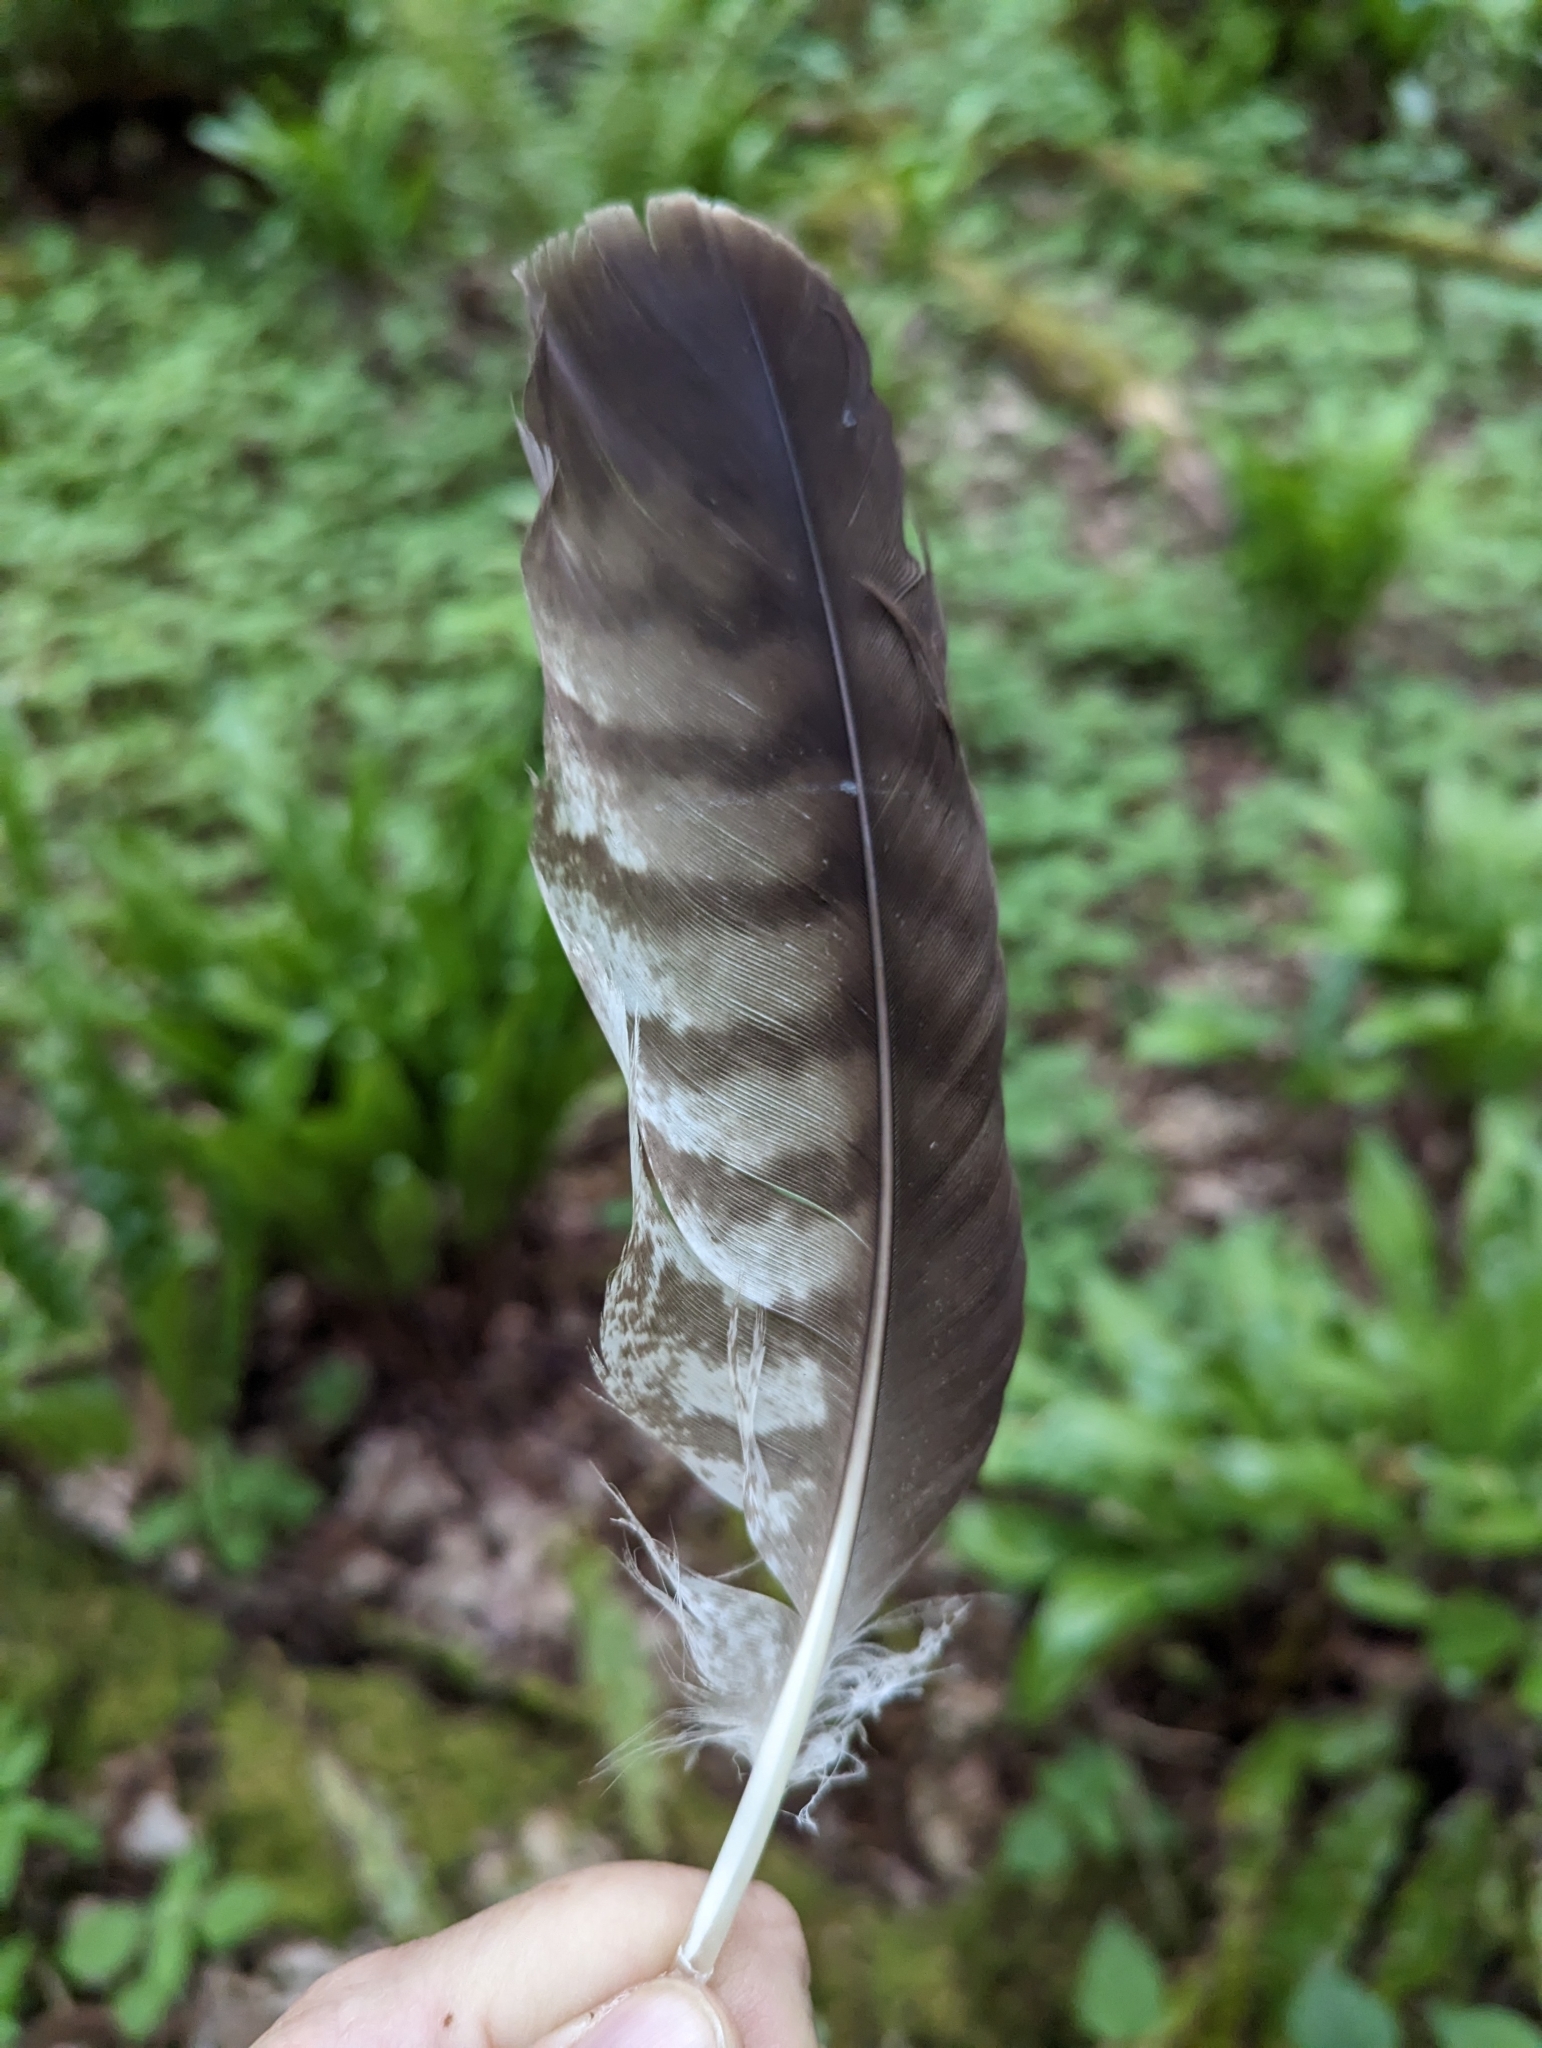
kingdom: Animalia
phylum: Chordata
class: Aves
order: Accipitriformes
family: Accipitridae
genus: Buteo
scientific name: Buteo buteo
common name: Common buzzard
